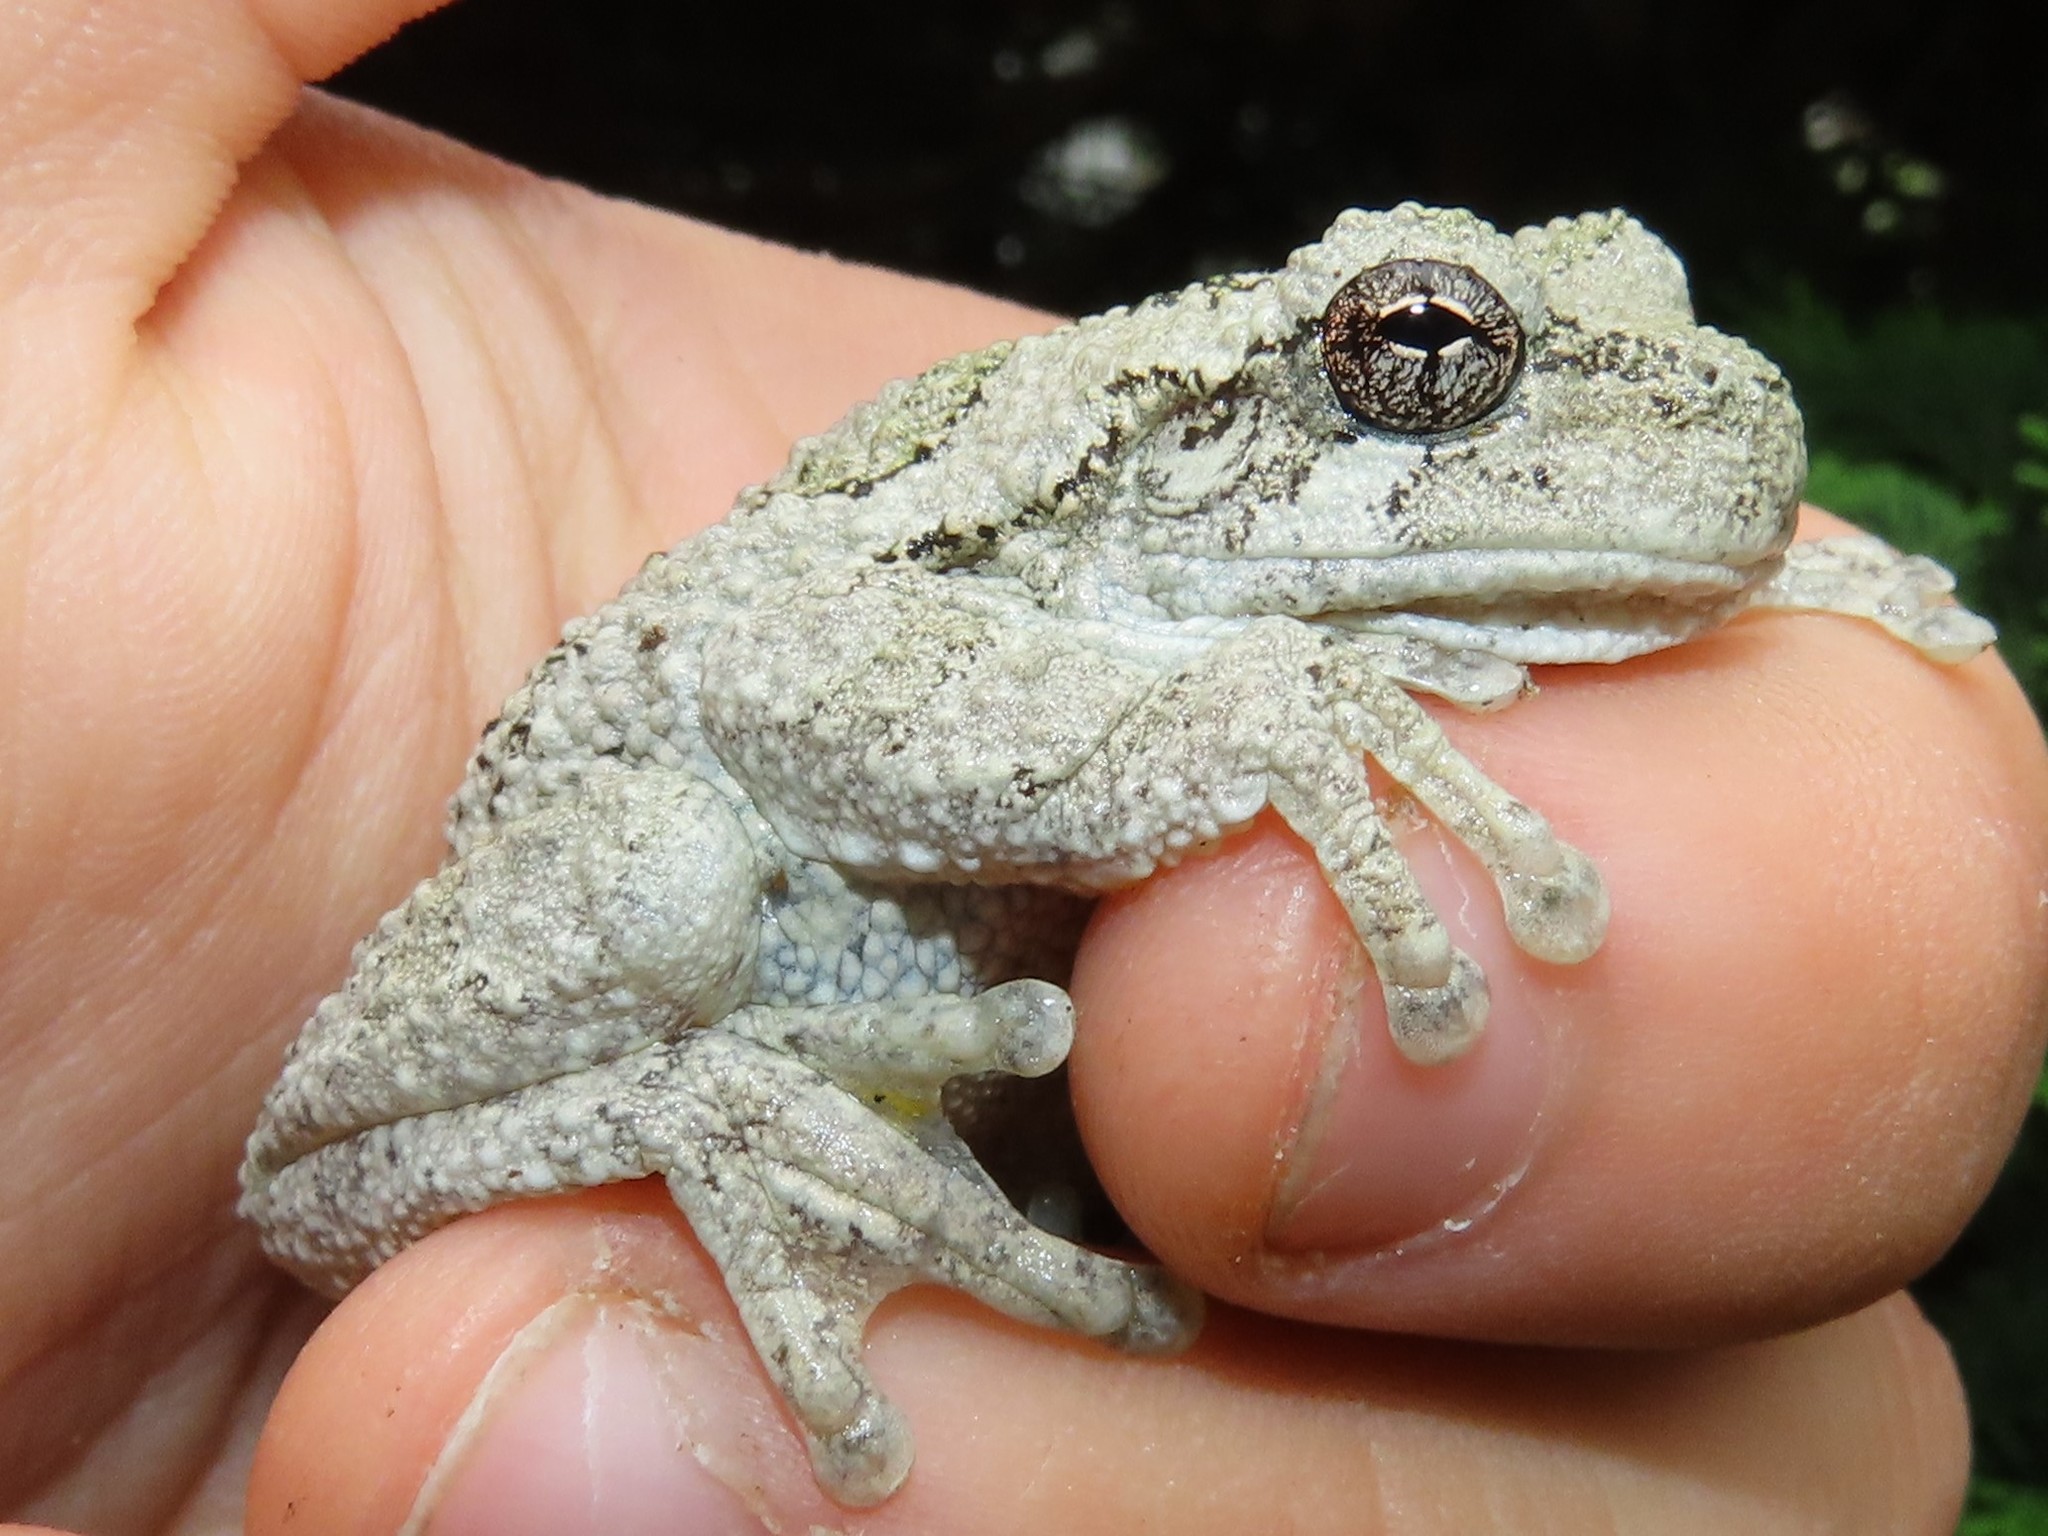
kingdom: Animalia
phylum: Chordata
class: Amphibia
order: Anura
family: Hylidae
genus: Dryophytes
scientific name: Dryophytes versicolor
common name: Gray treefrog
